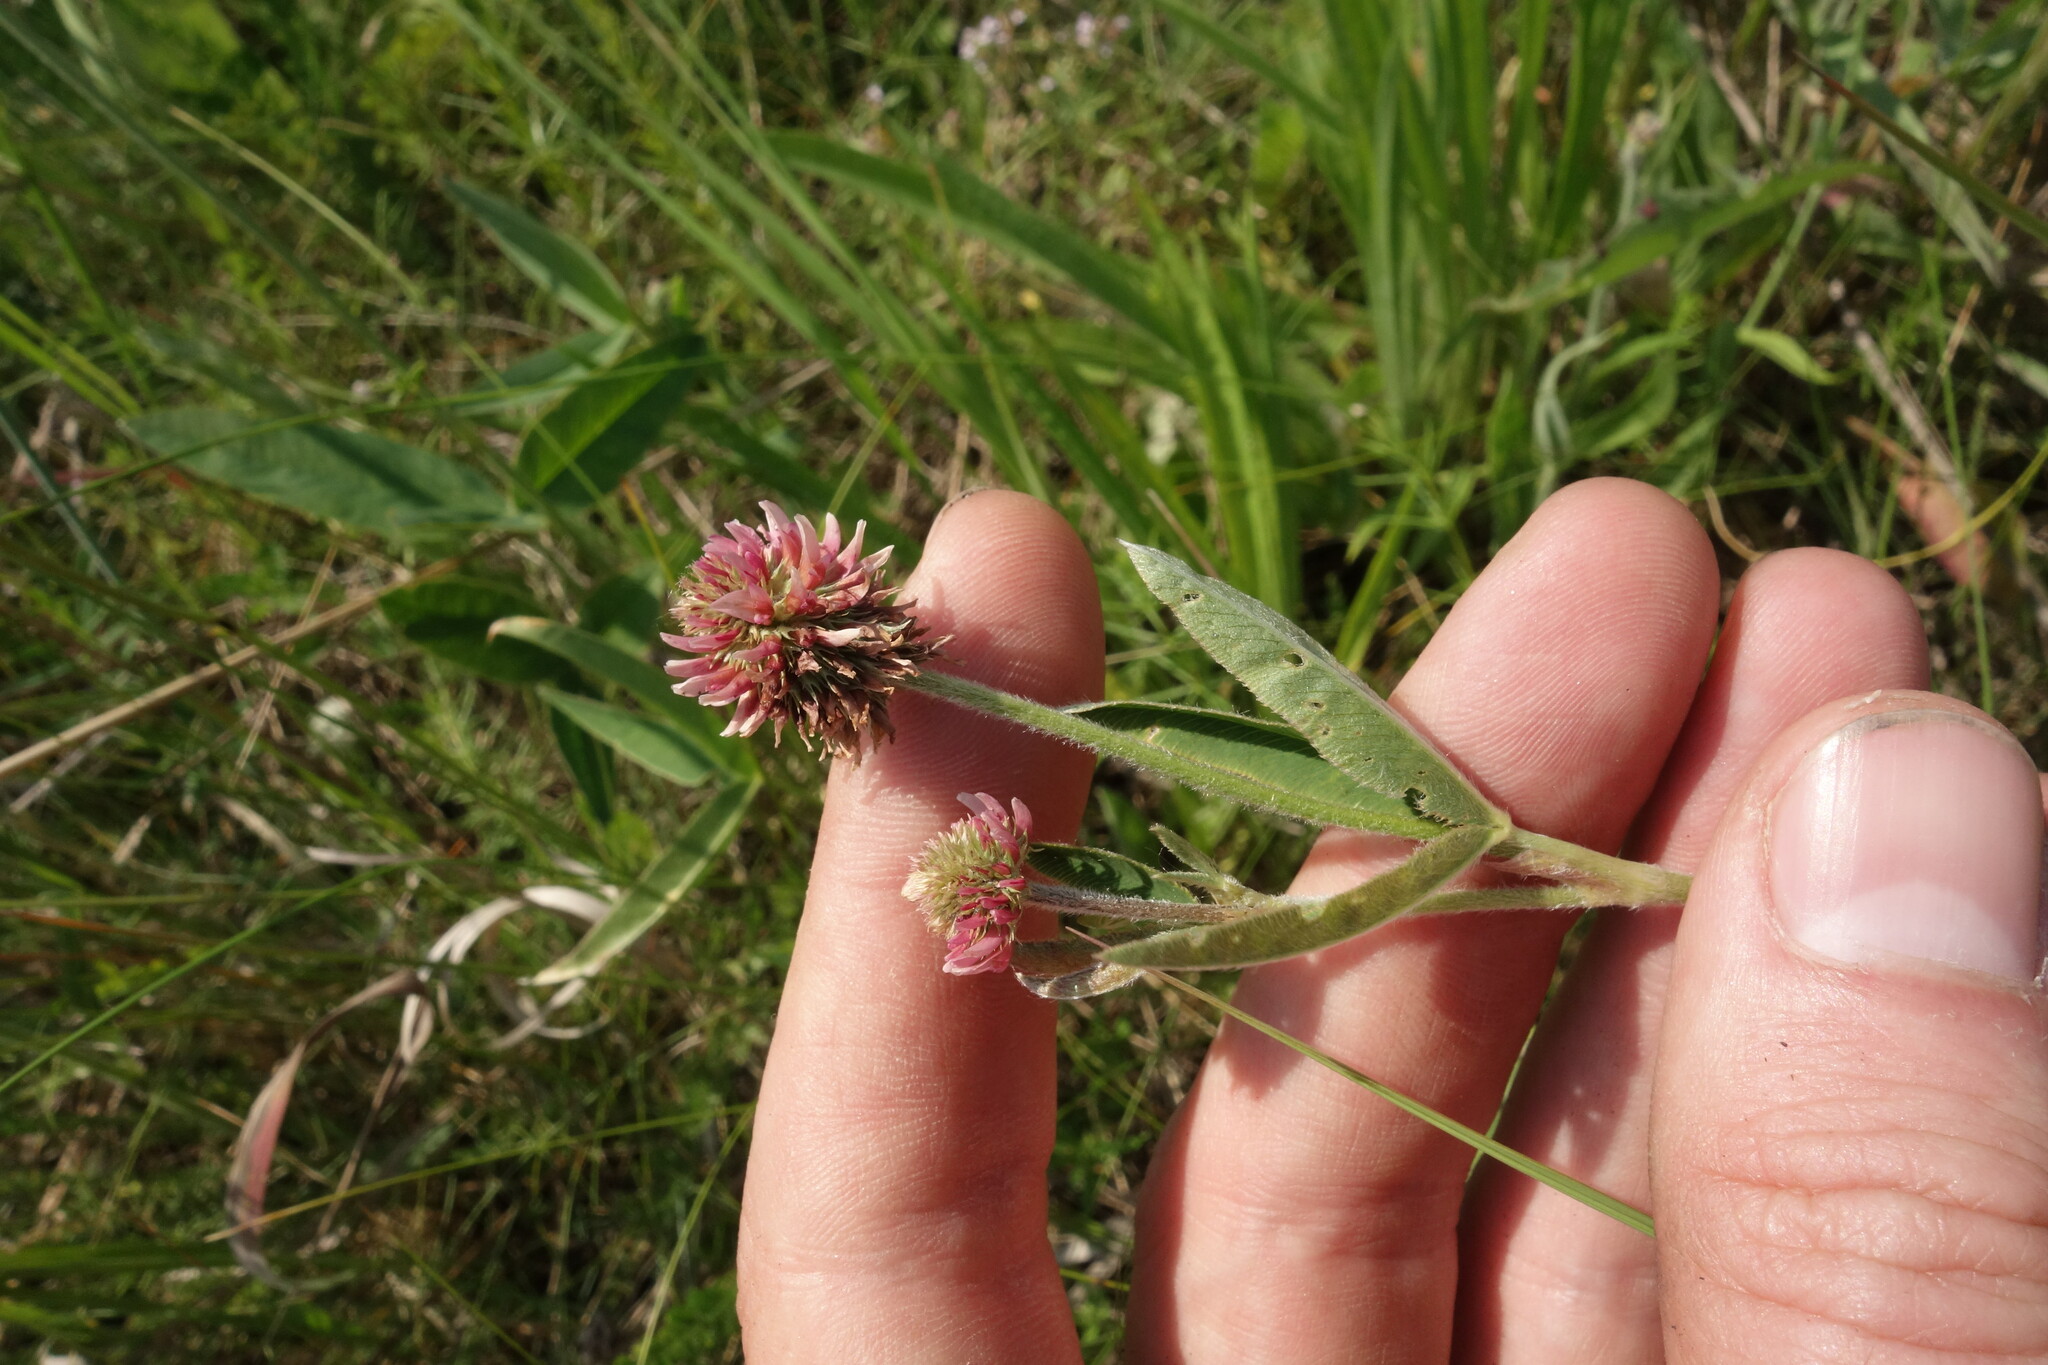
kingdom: Plantae
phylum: Tracheophyta
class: Magnoliopsida
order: Fabales
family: Fabaceae
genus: Trifolium
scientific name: Trifolium montanum
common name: Mountain clover
